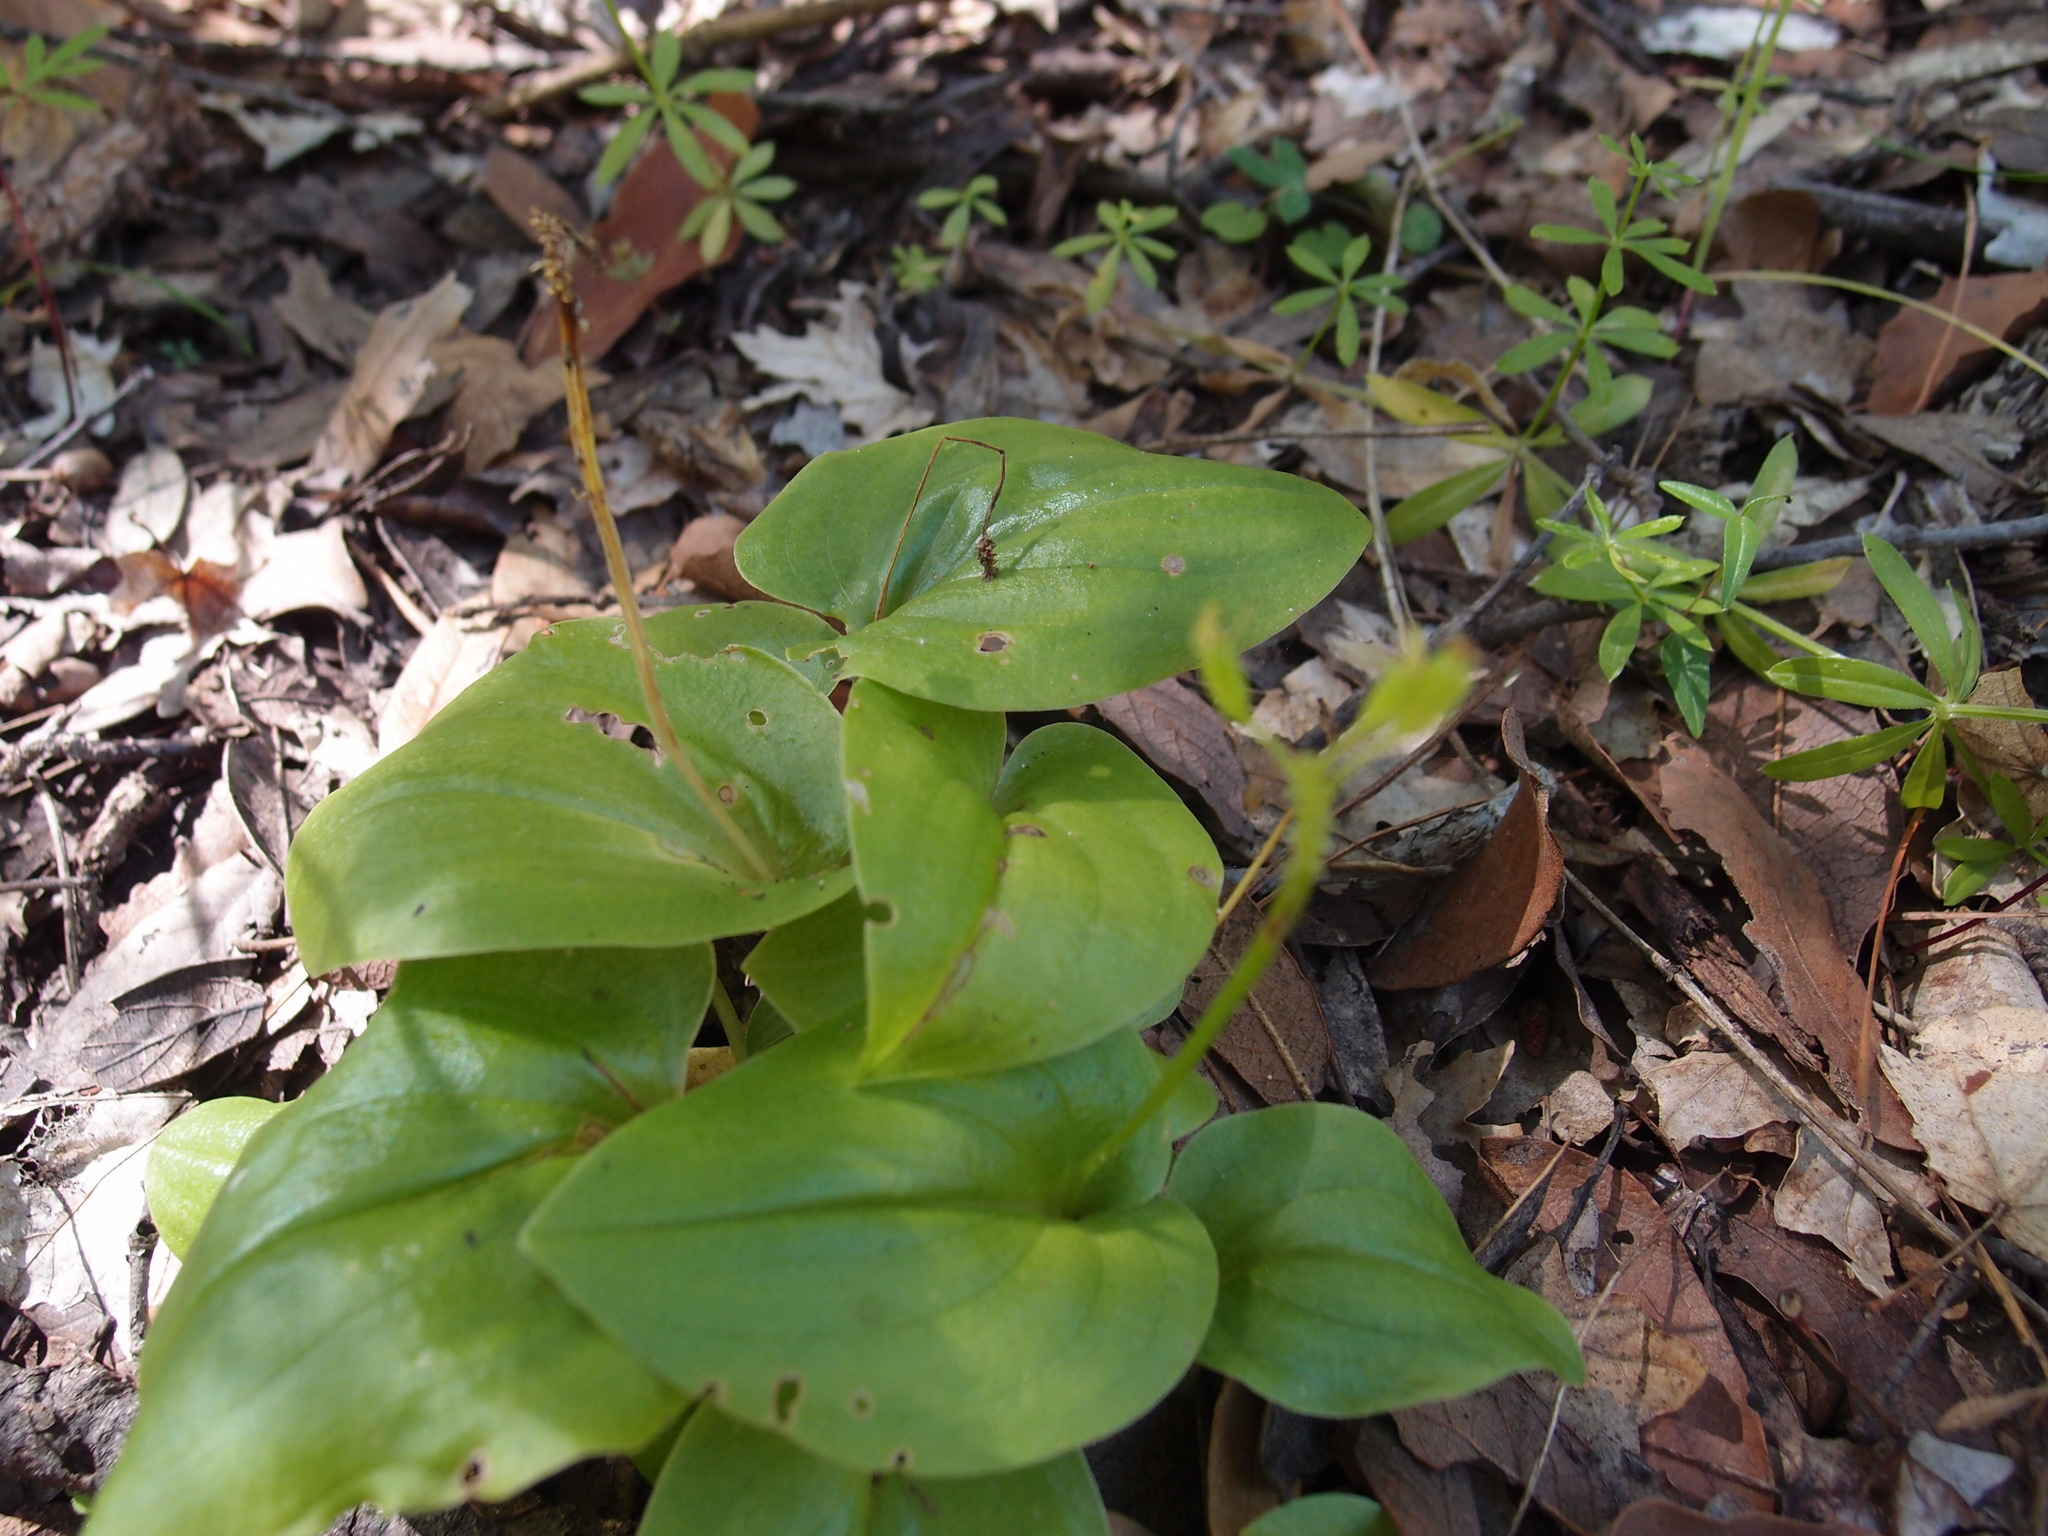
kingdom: Plantae
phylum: Tracheophyta
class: Liliopsida
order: Asparagales
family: Orchidaceae
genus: Malaxis
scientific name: Malaxis brachystachys
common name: Huachuca adder's-mouth
